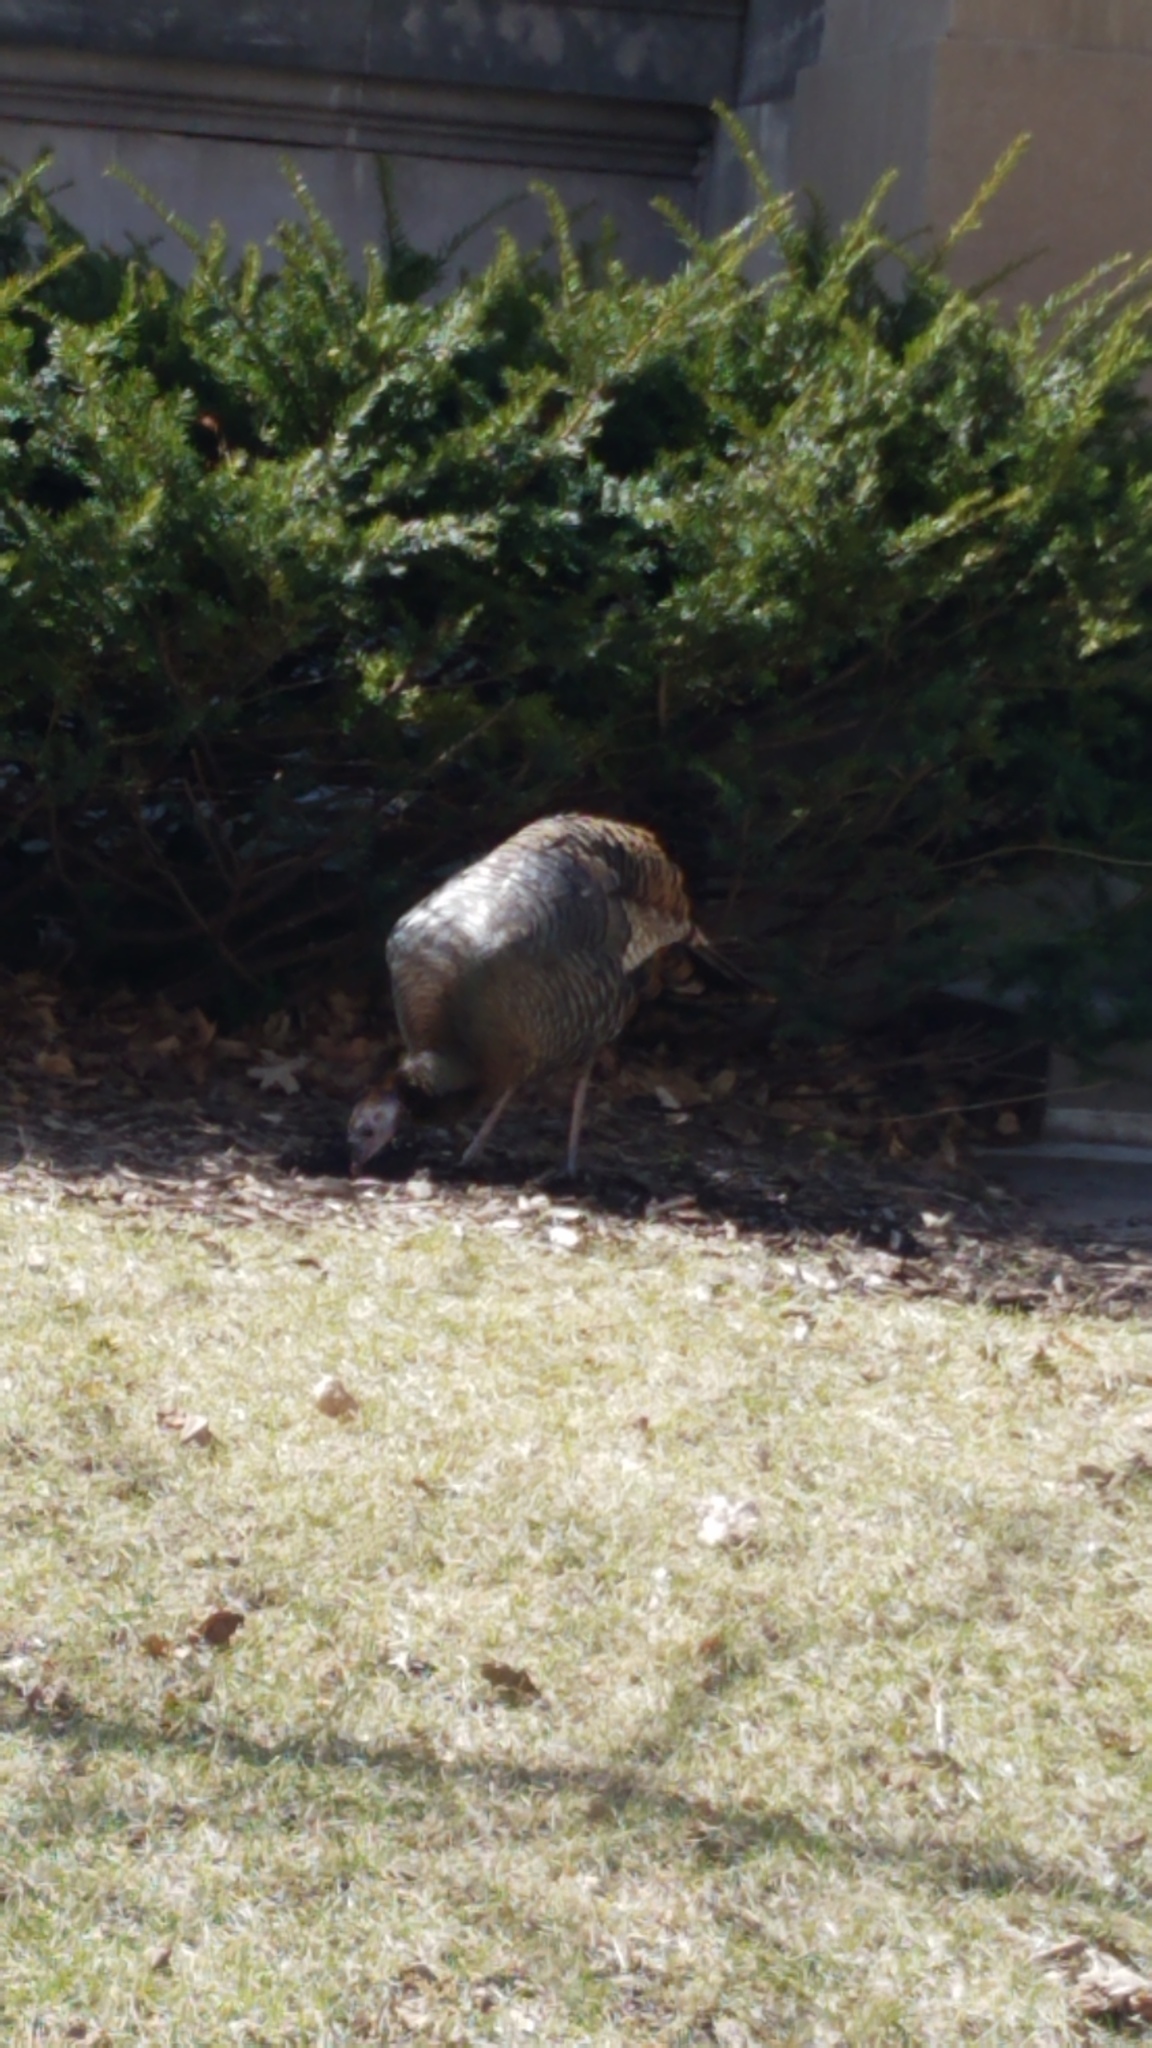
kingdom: Animalia
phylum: Chordata
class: Aves
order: Galliformes
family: Phasianidae
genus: Meleagris
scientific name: Meleagris gallopavo
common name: Wild turkey
